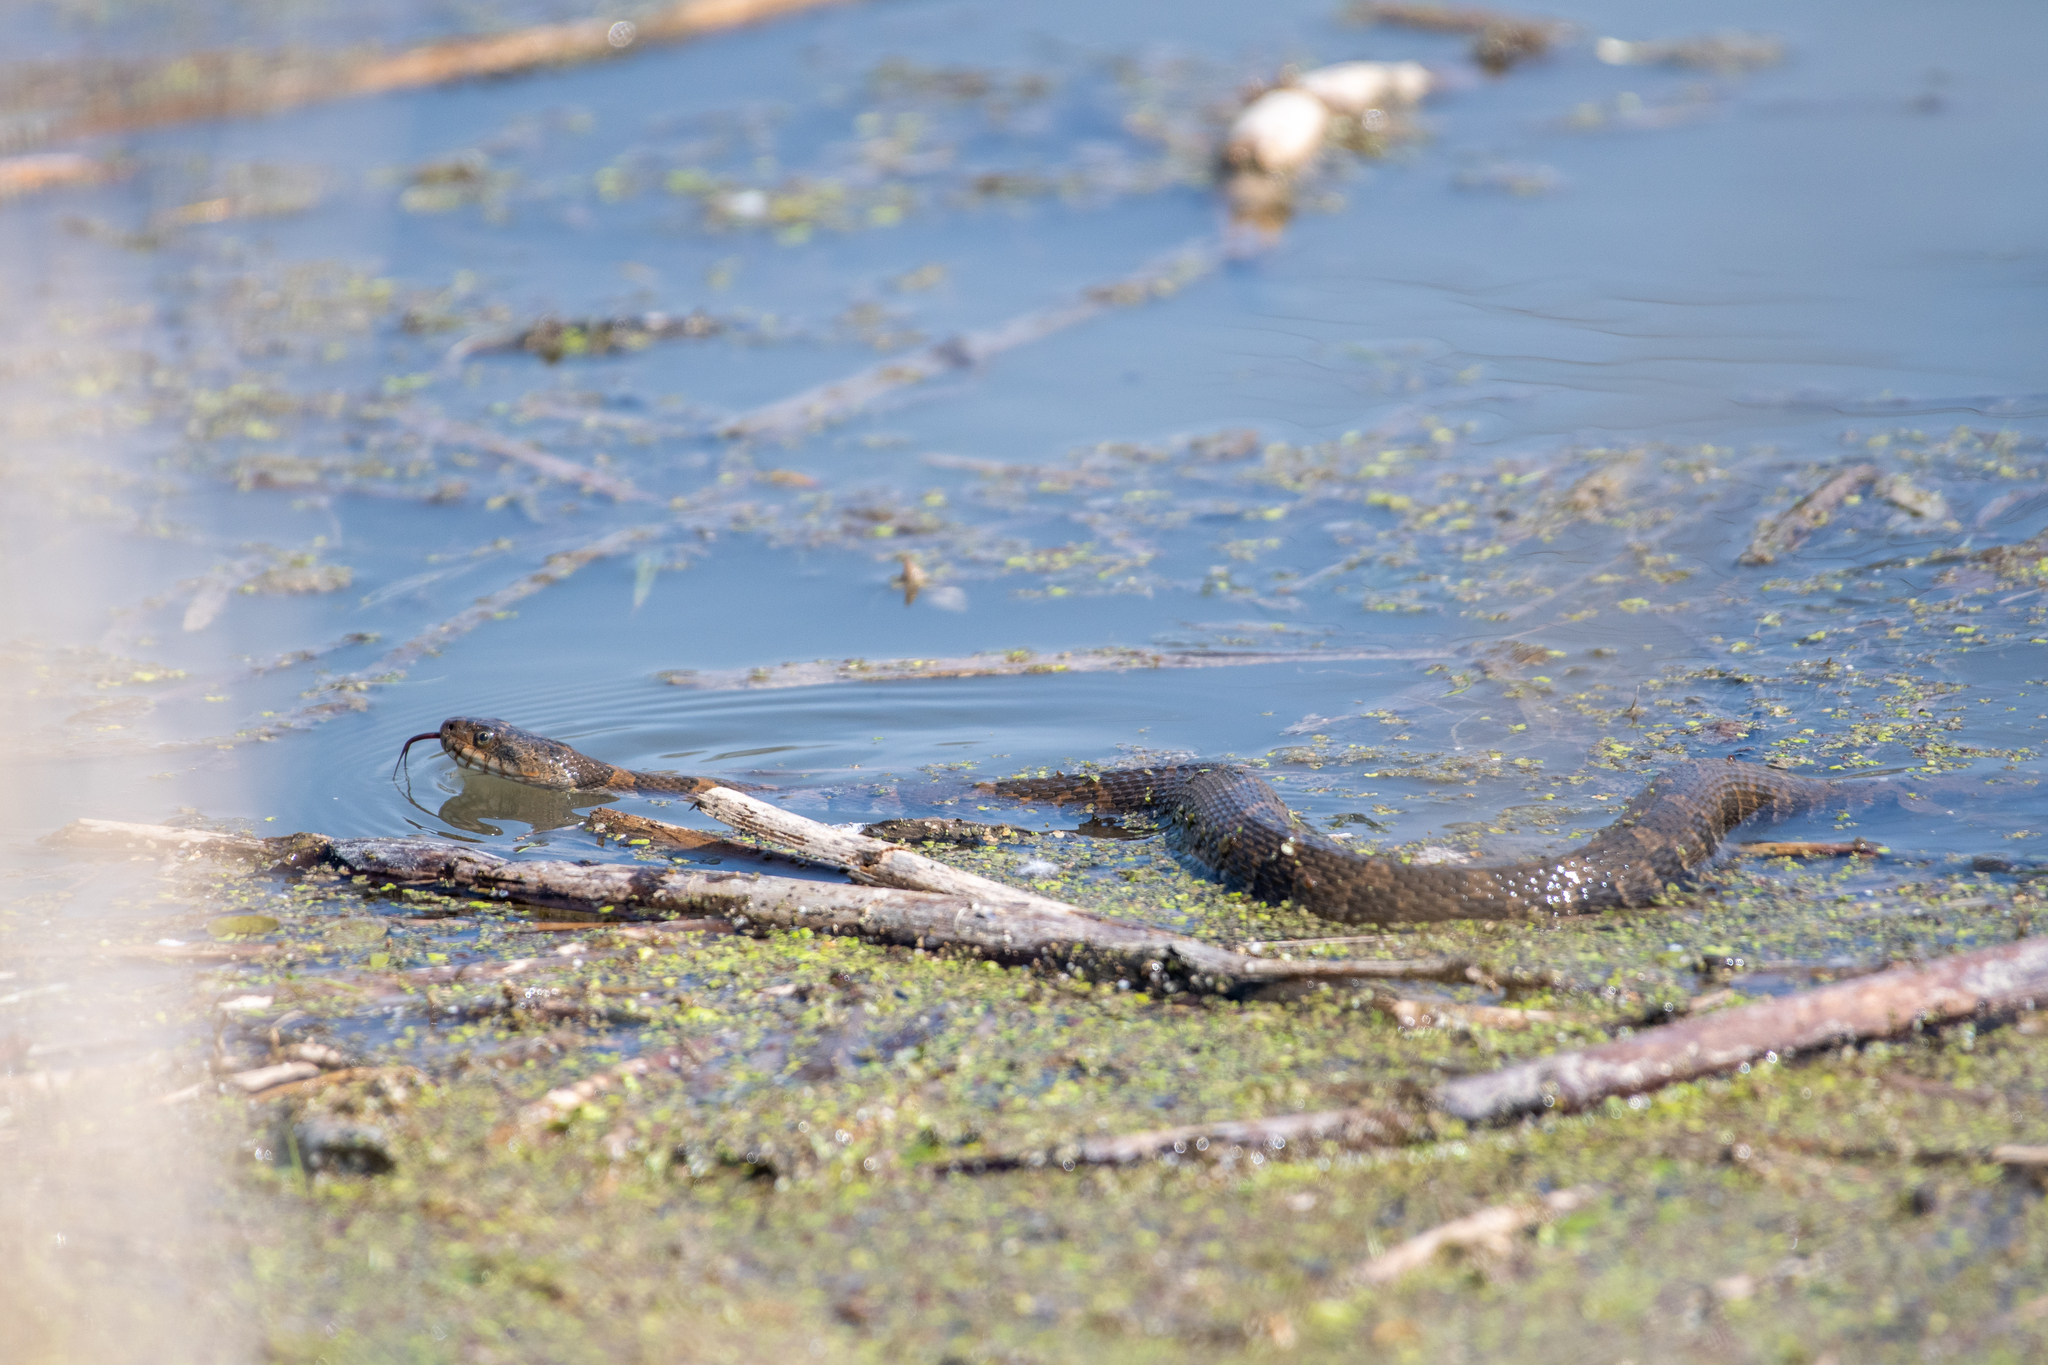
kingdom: Animalia
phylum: Chordata
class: Squamata
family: Colubridae
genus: Nerodia
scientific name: Nerodia sipedon
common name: Northern water snake
